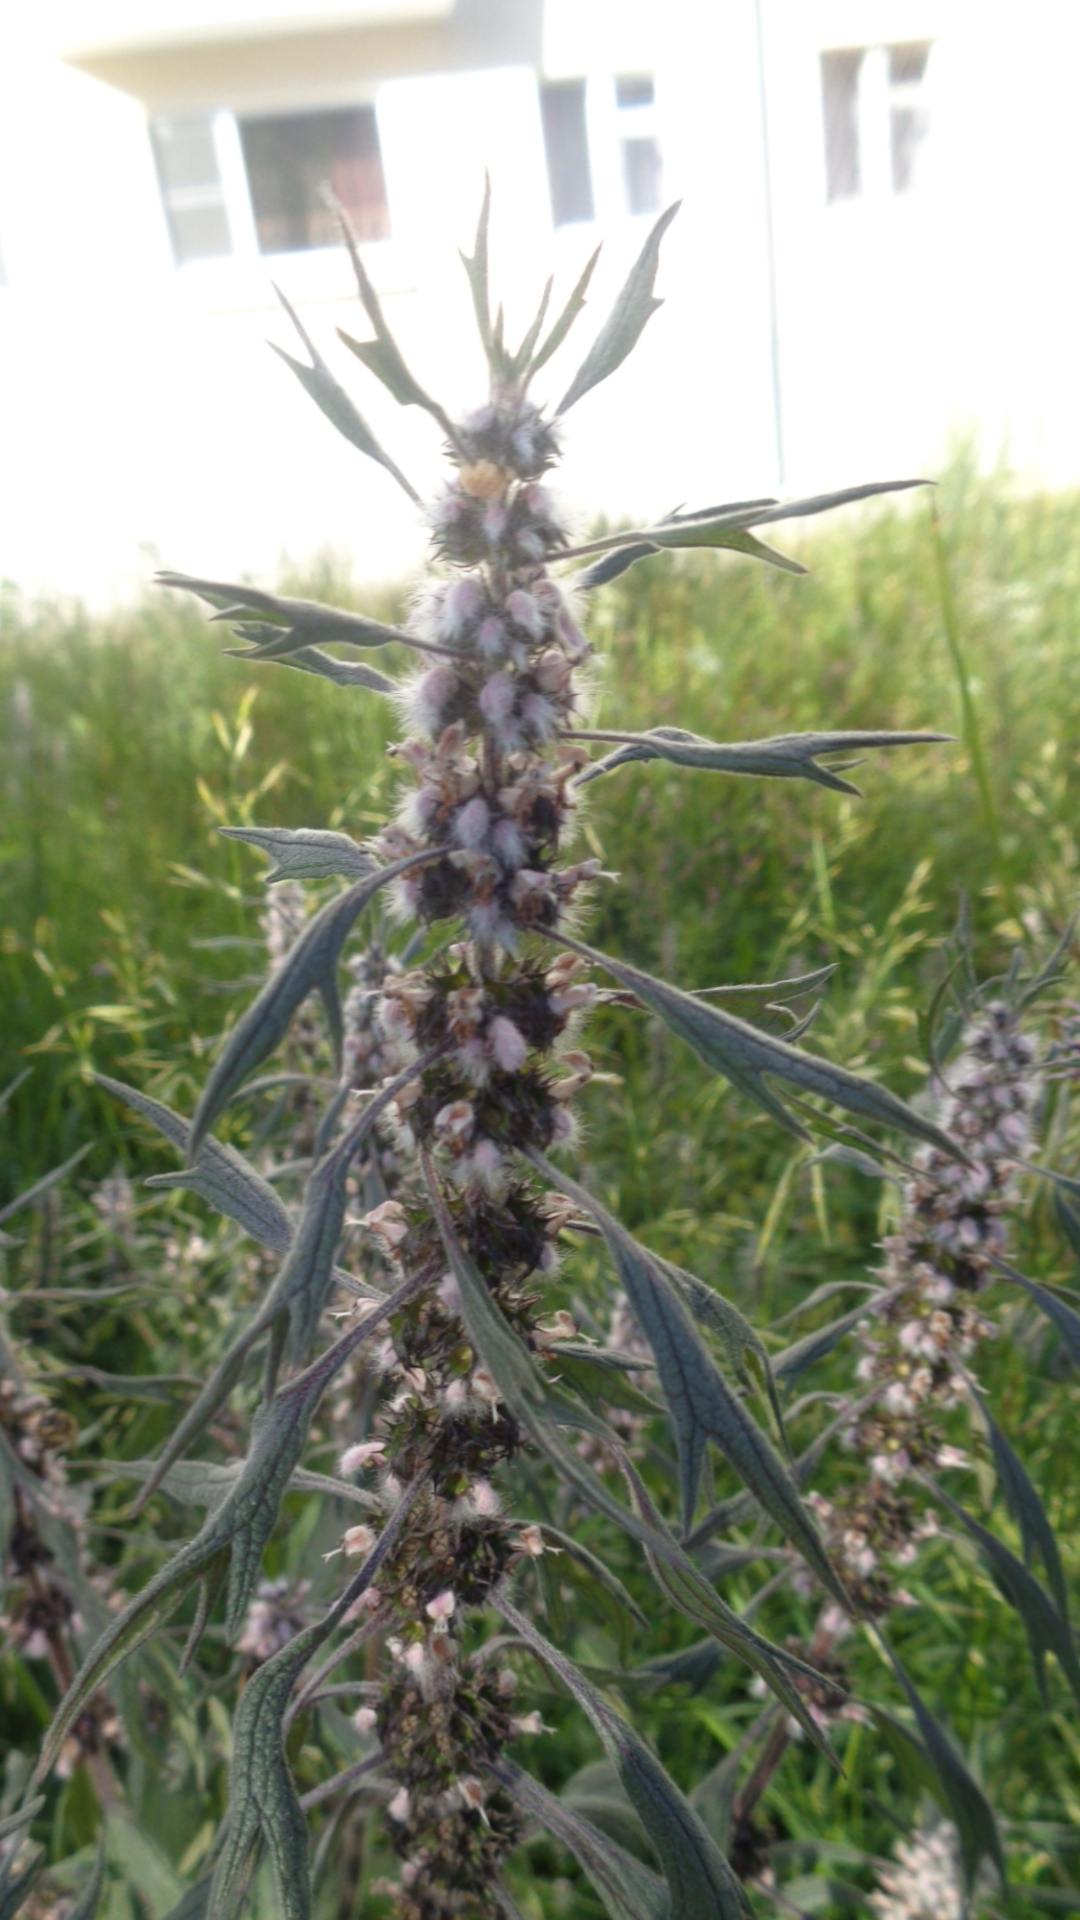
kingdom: Plantae
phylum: Tracheophyta
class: Magnoliopsida
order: Lamiales
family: Lamiaceae
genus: Leonurus
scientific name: Leonurus quinquelobatus
